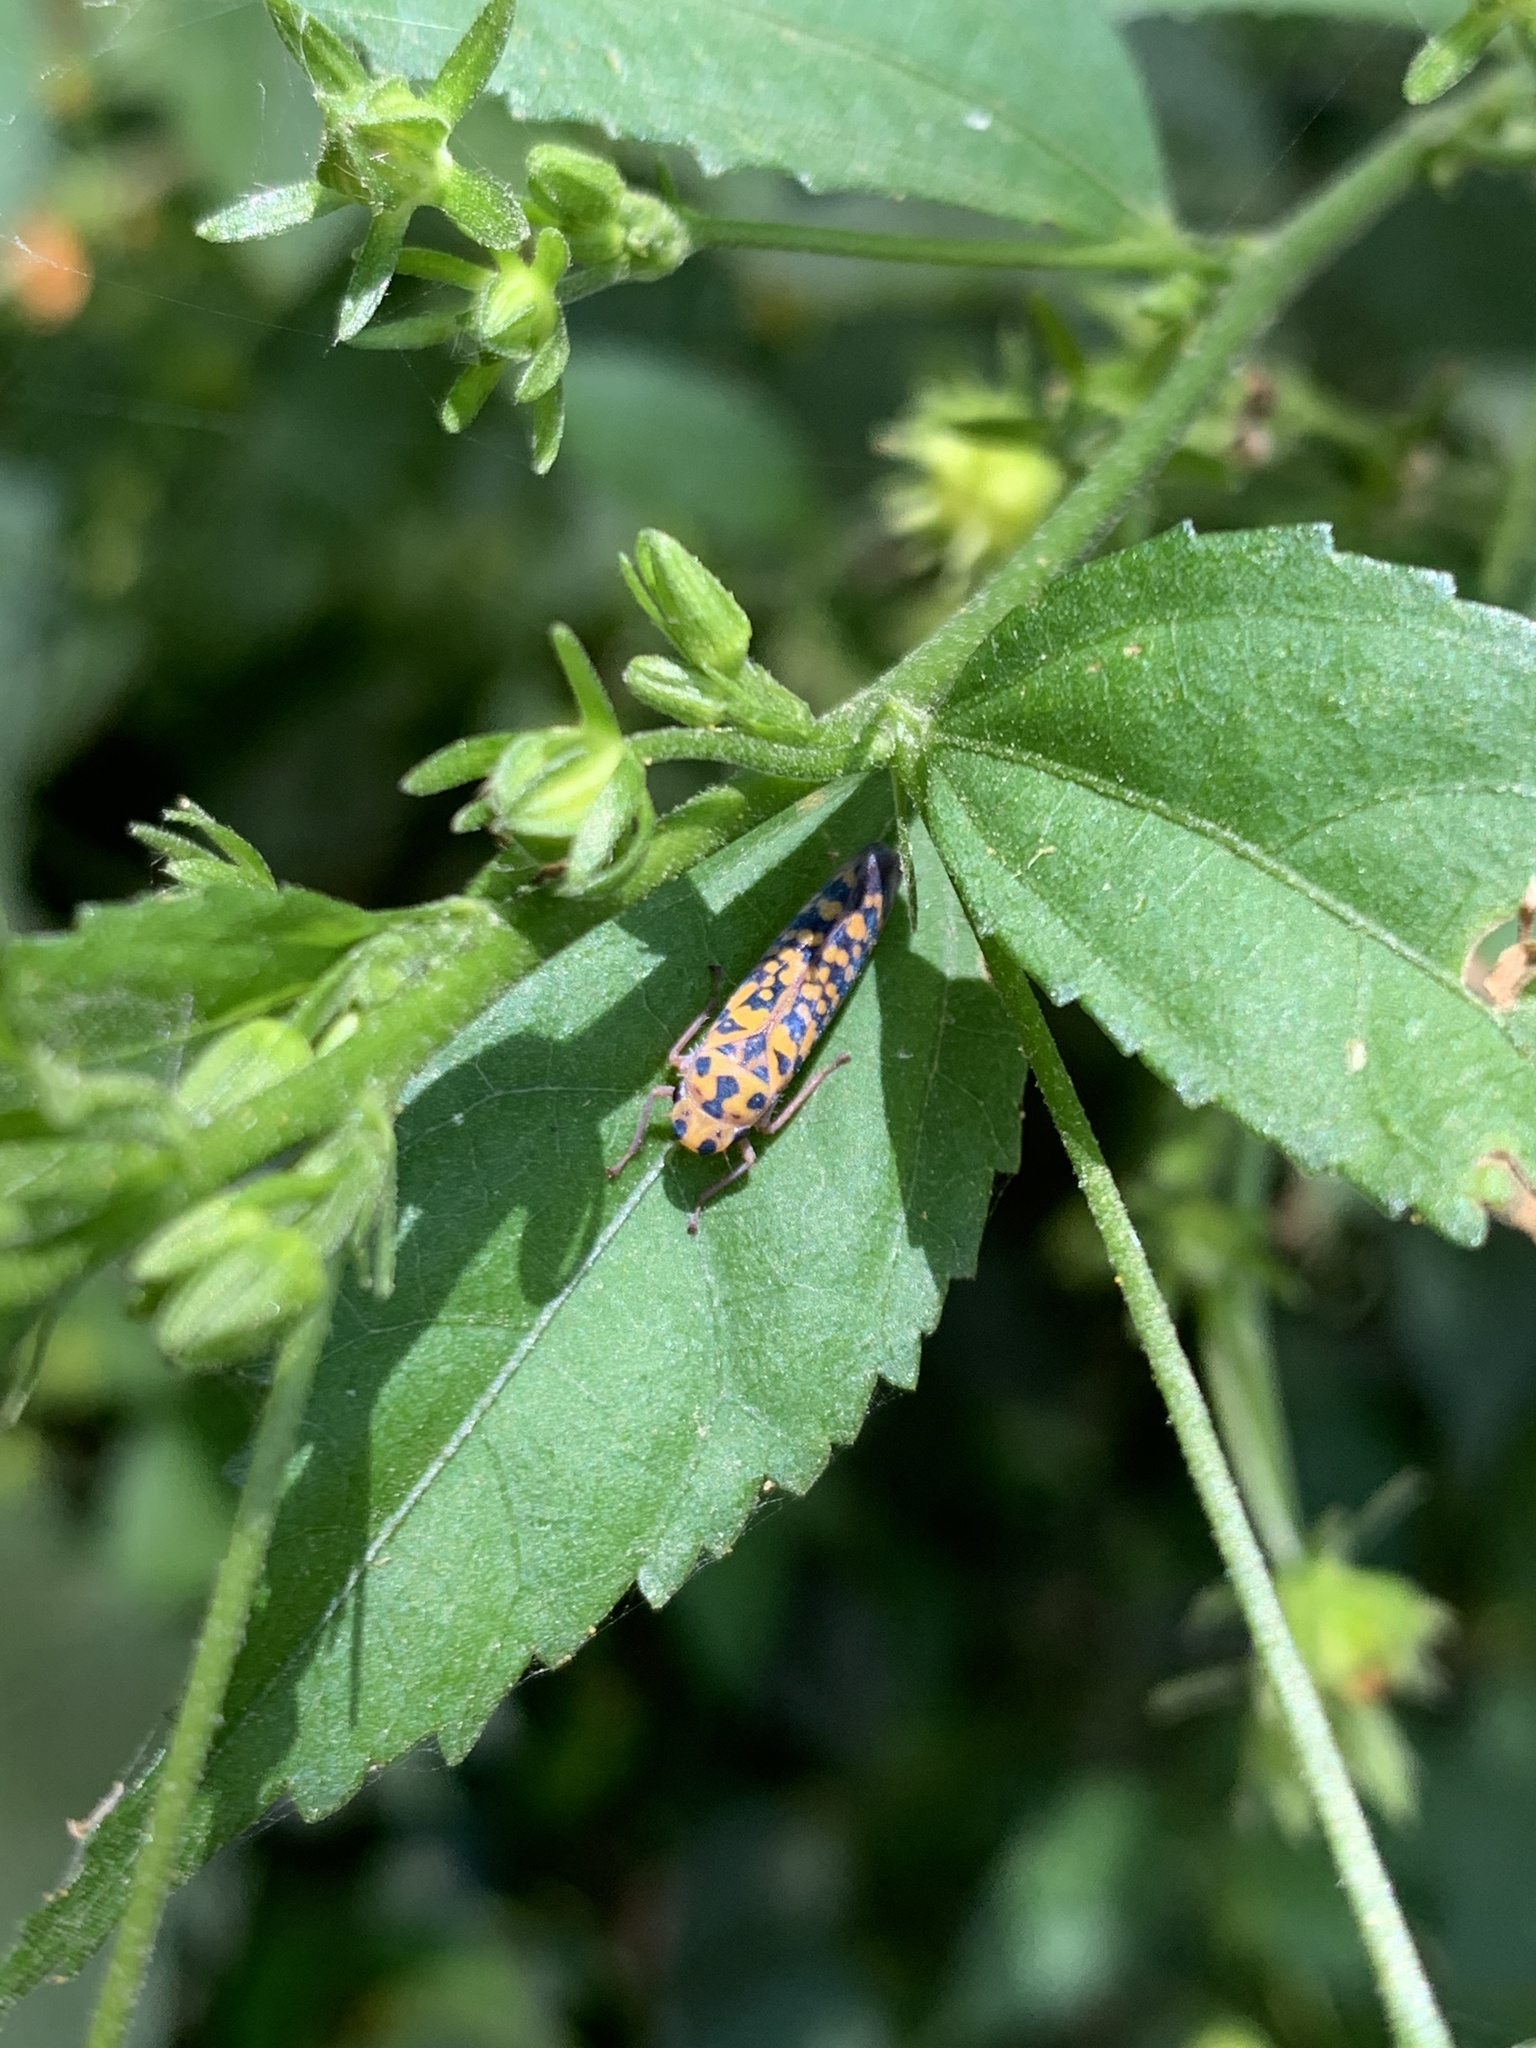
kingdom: Animalia
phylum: Arthropoda
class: Insecta
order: Hemiptera
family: Cicadellidae
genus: Pawiloma
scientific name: Pawiloma victima
